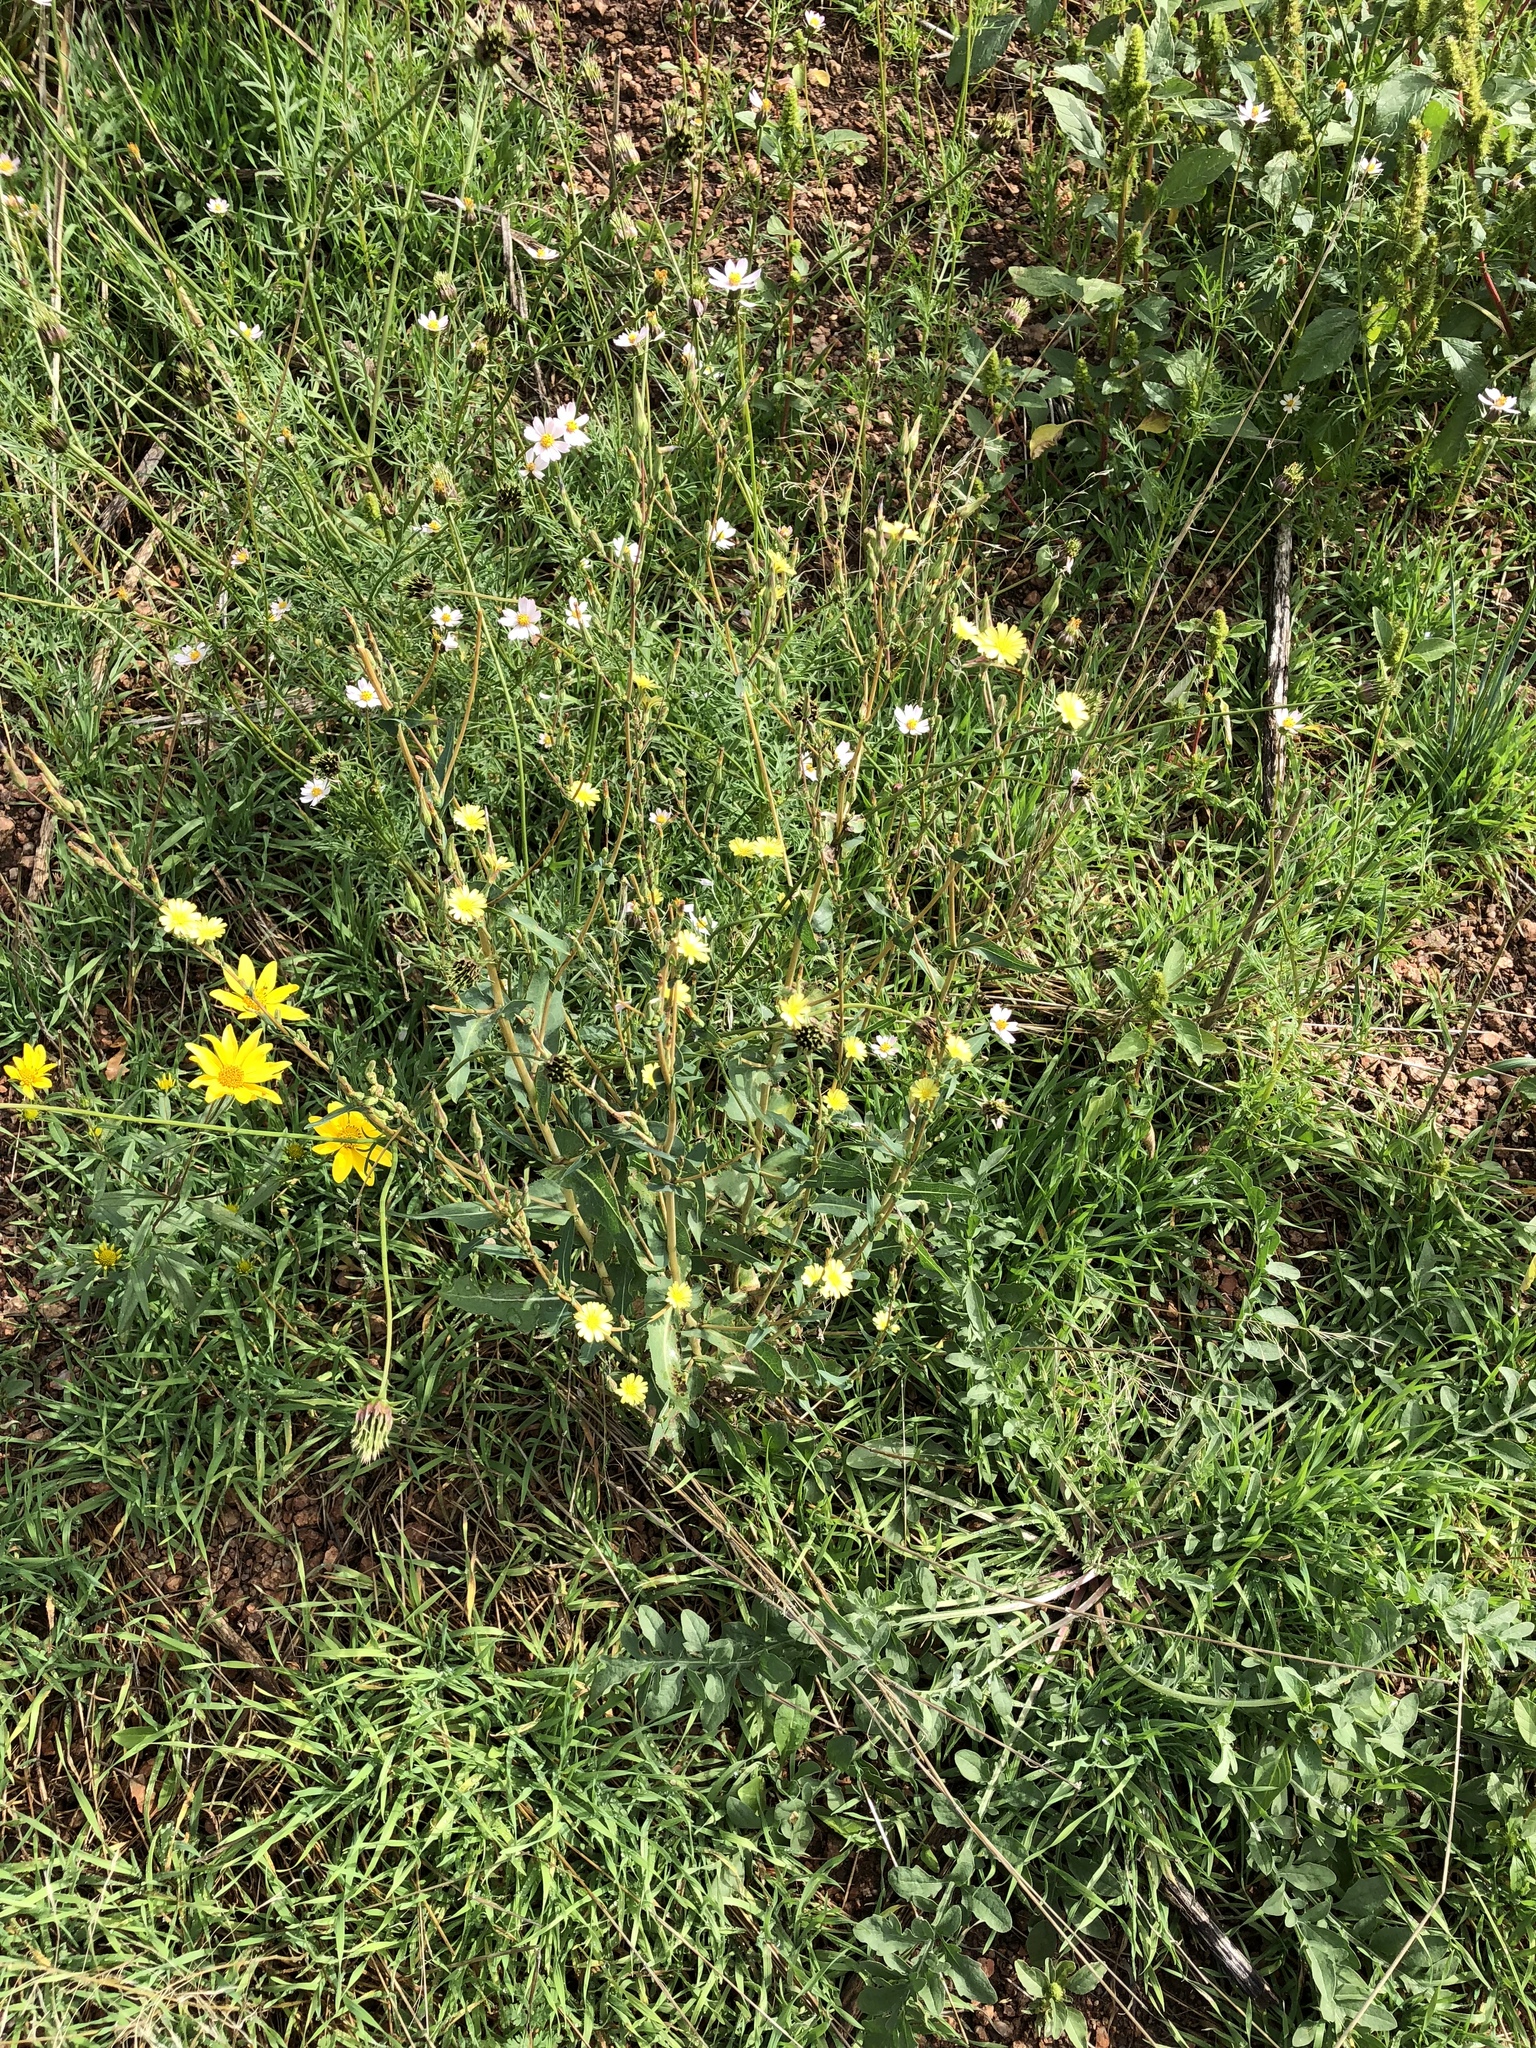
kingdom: Plantae
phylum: Tracheophyta
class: Magnoliopsida
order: Asterales
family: Asteraceae
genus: Lactuca
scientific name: Lactuca serriola
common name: Prickly lettuce
